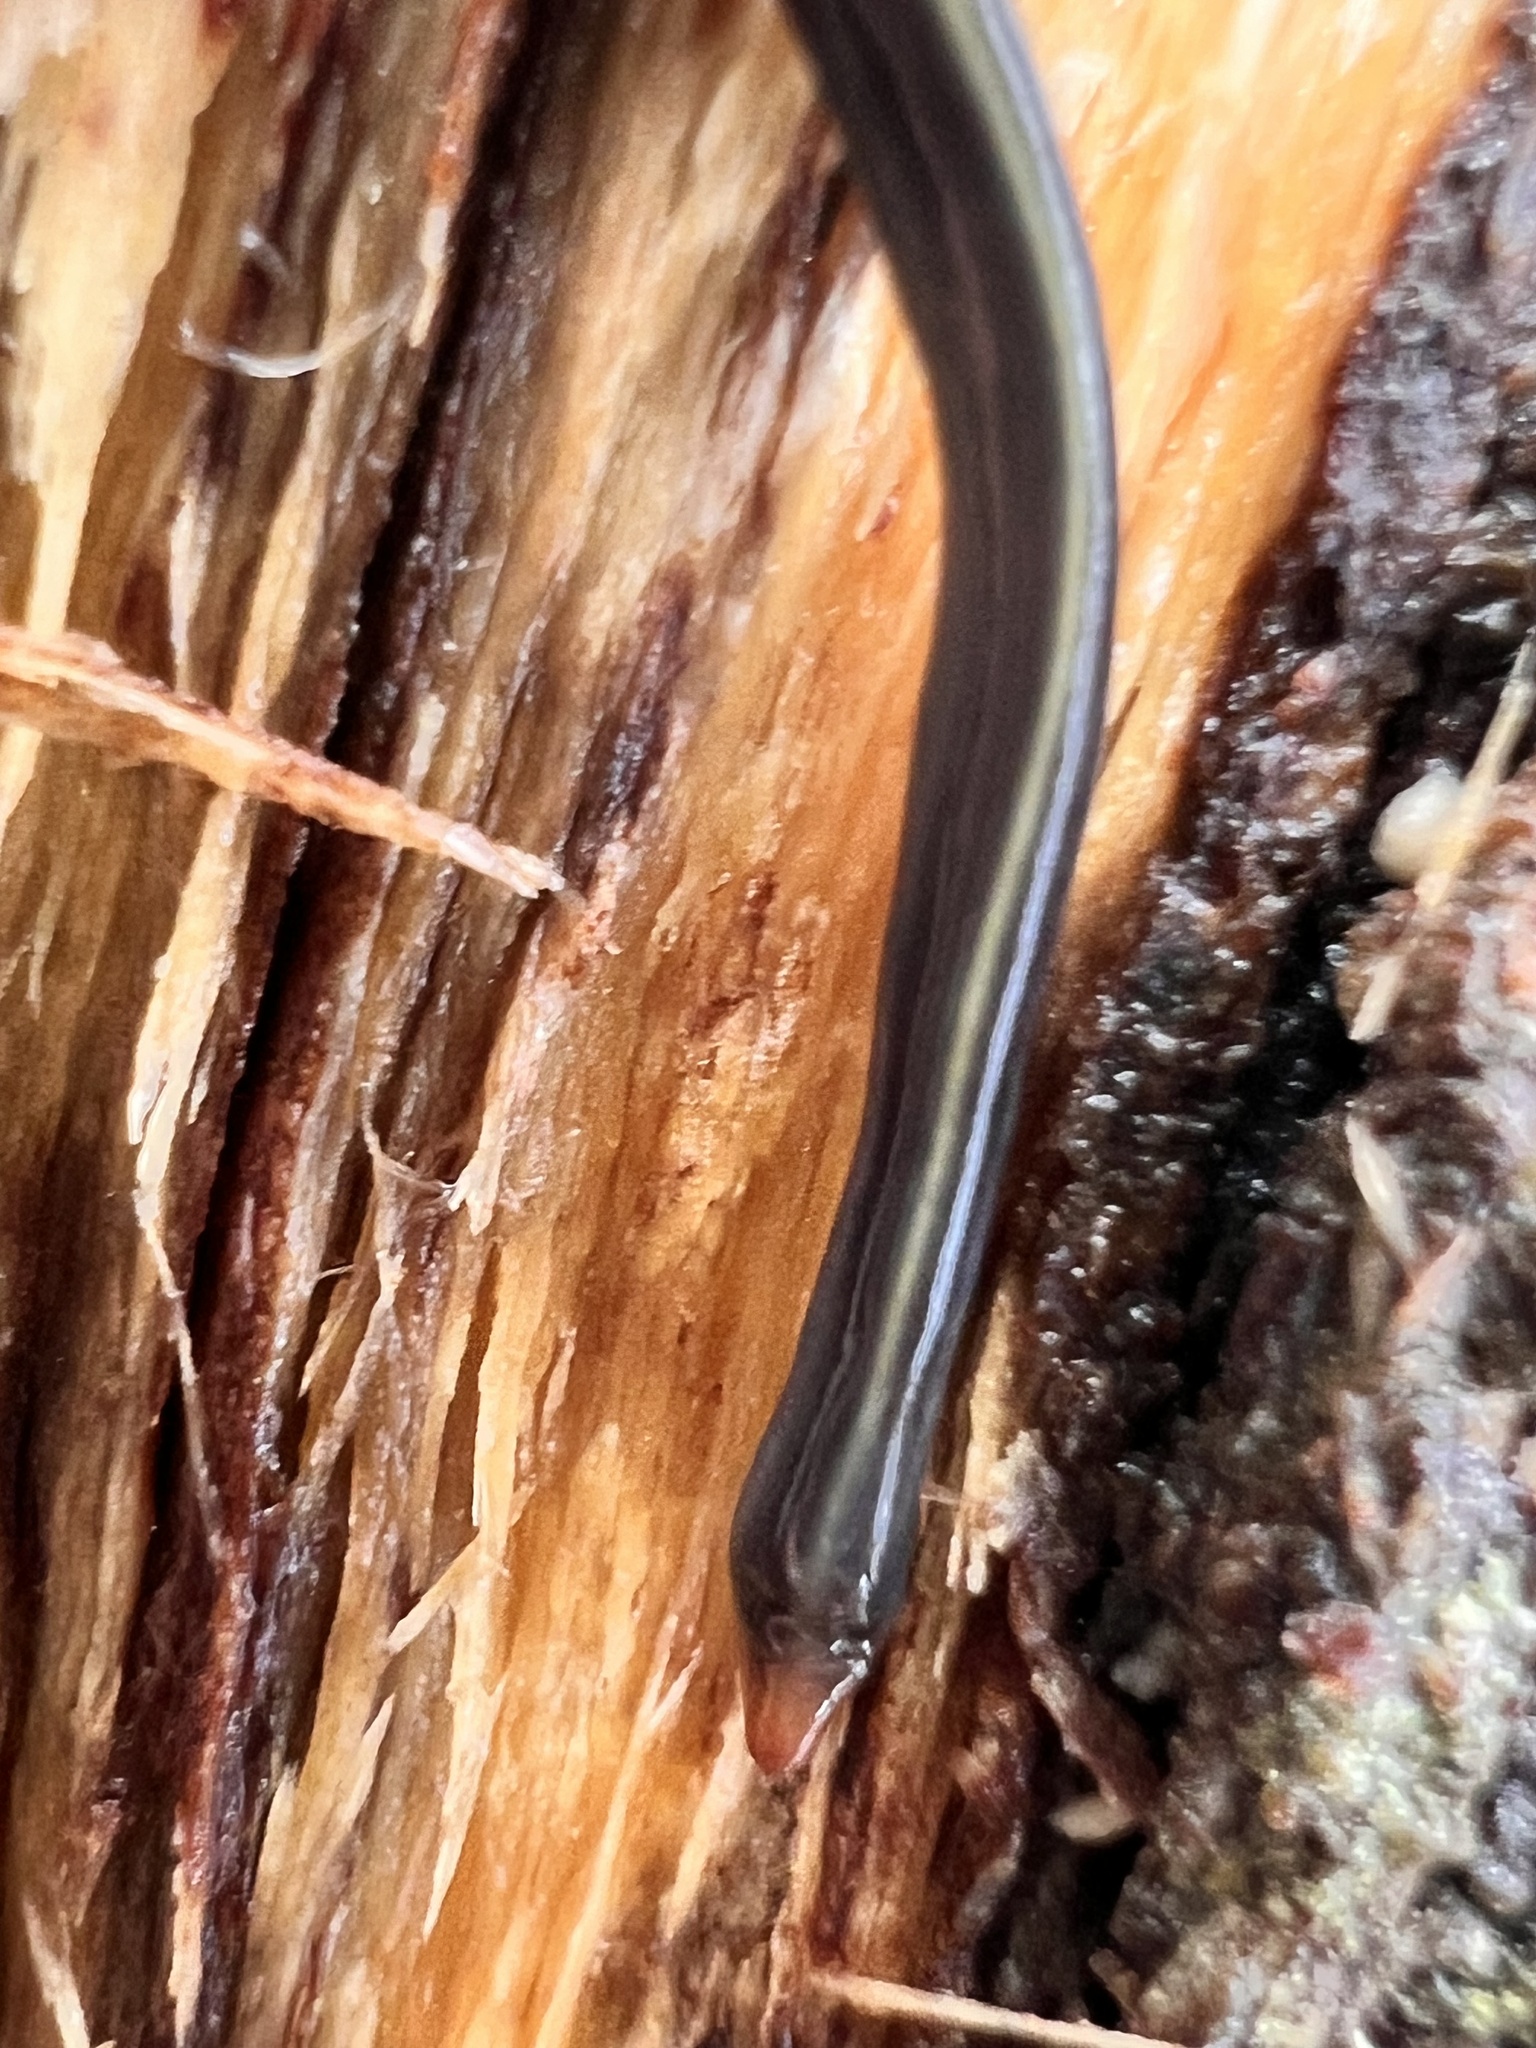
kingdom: Animalia
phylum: Platyhelminthes
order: Tricladida
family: Geoplanidae
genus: Caenoplana
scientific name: Caenoplana coerulea
